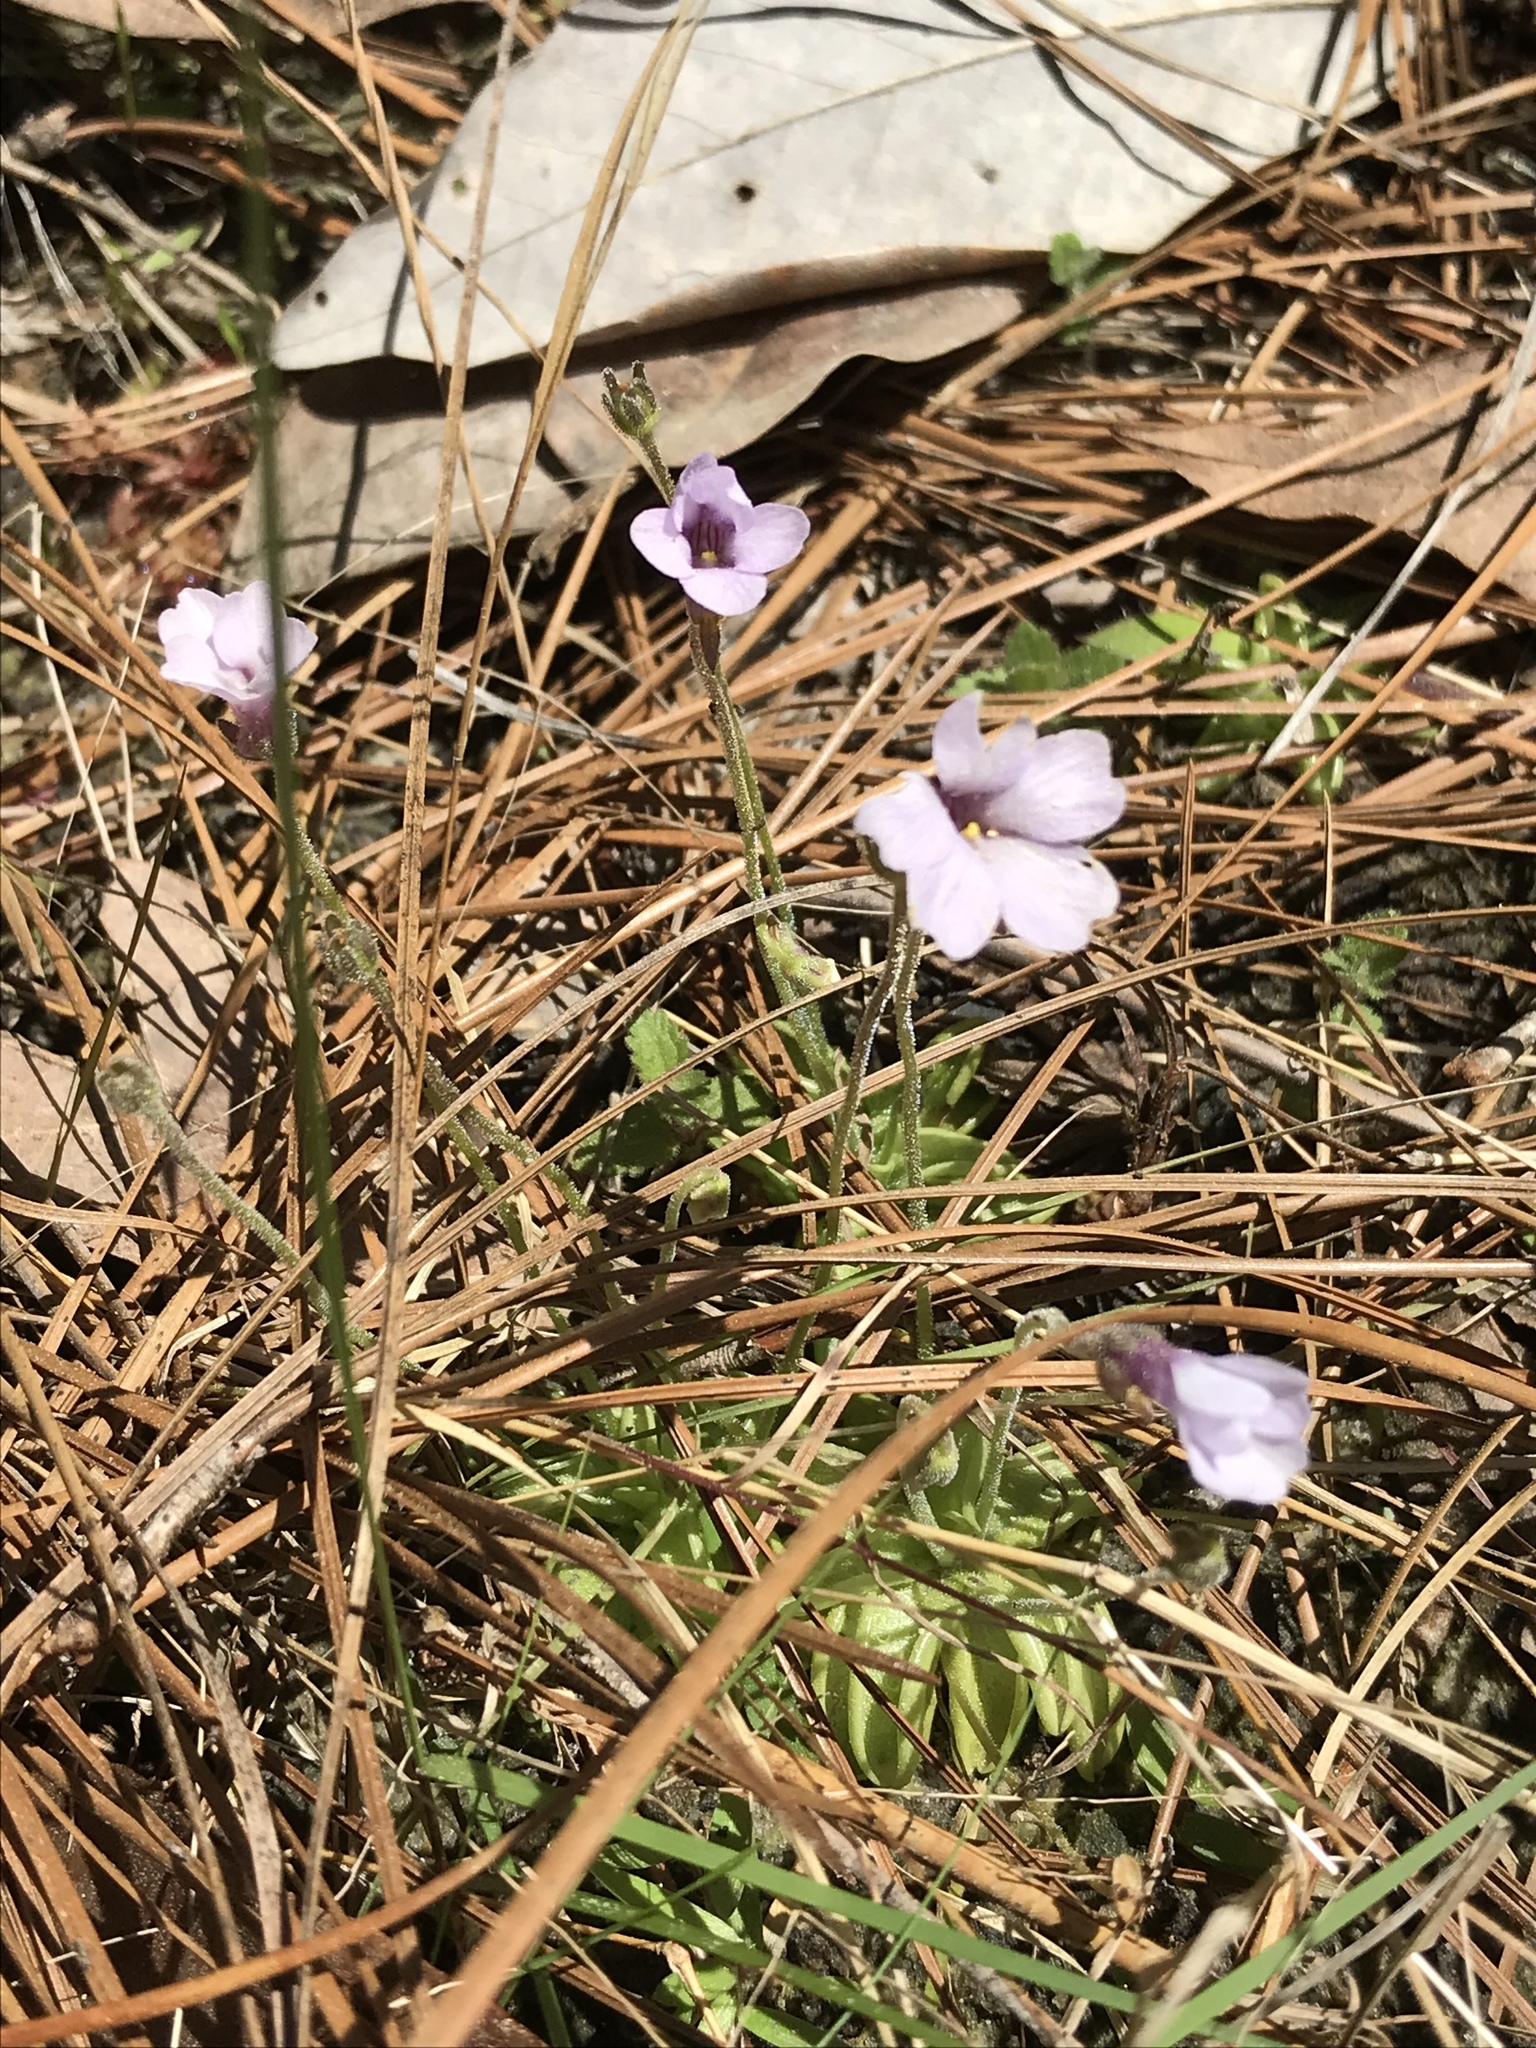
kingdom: Plantae
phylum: Tracheophyta
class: Magnoliopsida
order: Lamiales
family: Lentibulariaceae
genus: Pinguicula
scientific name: Pinguicula pumila
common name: Small butterwort
